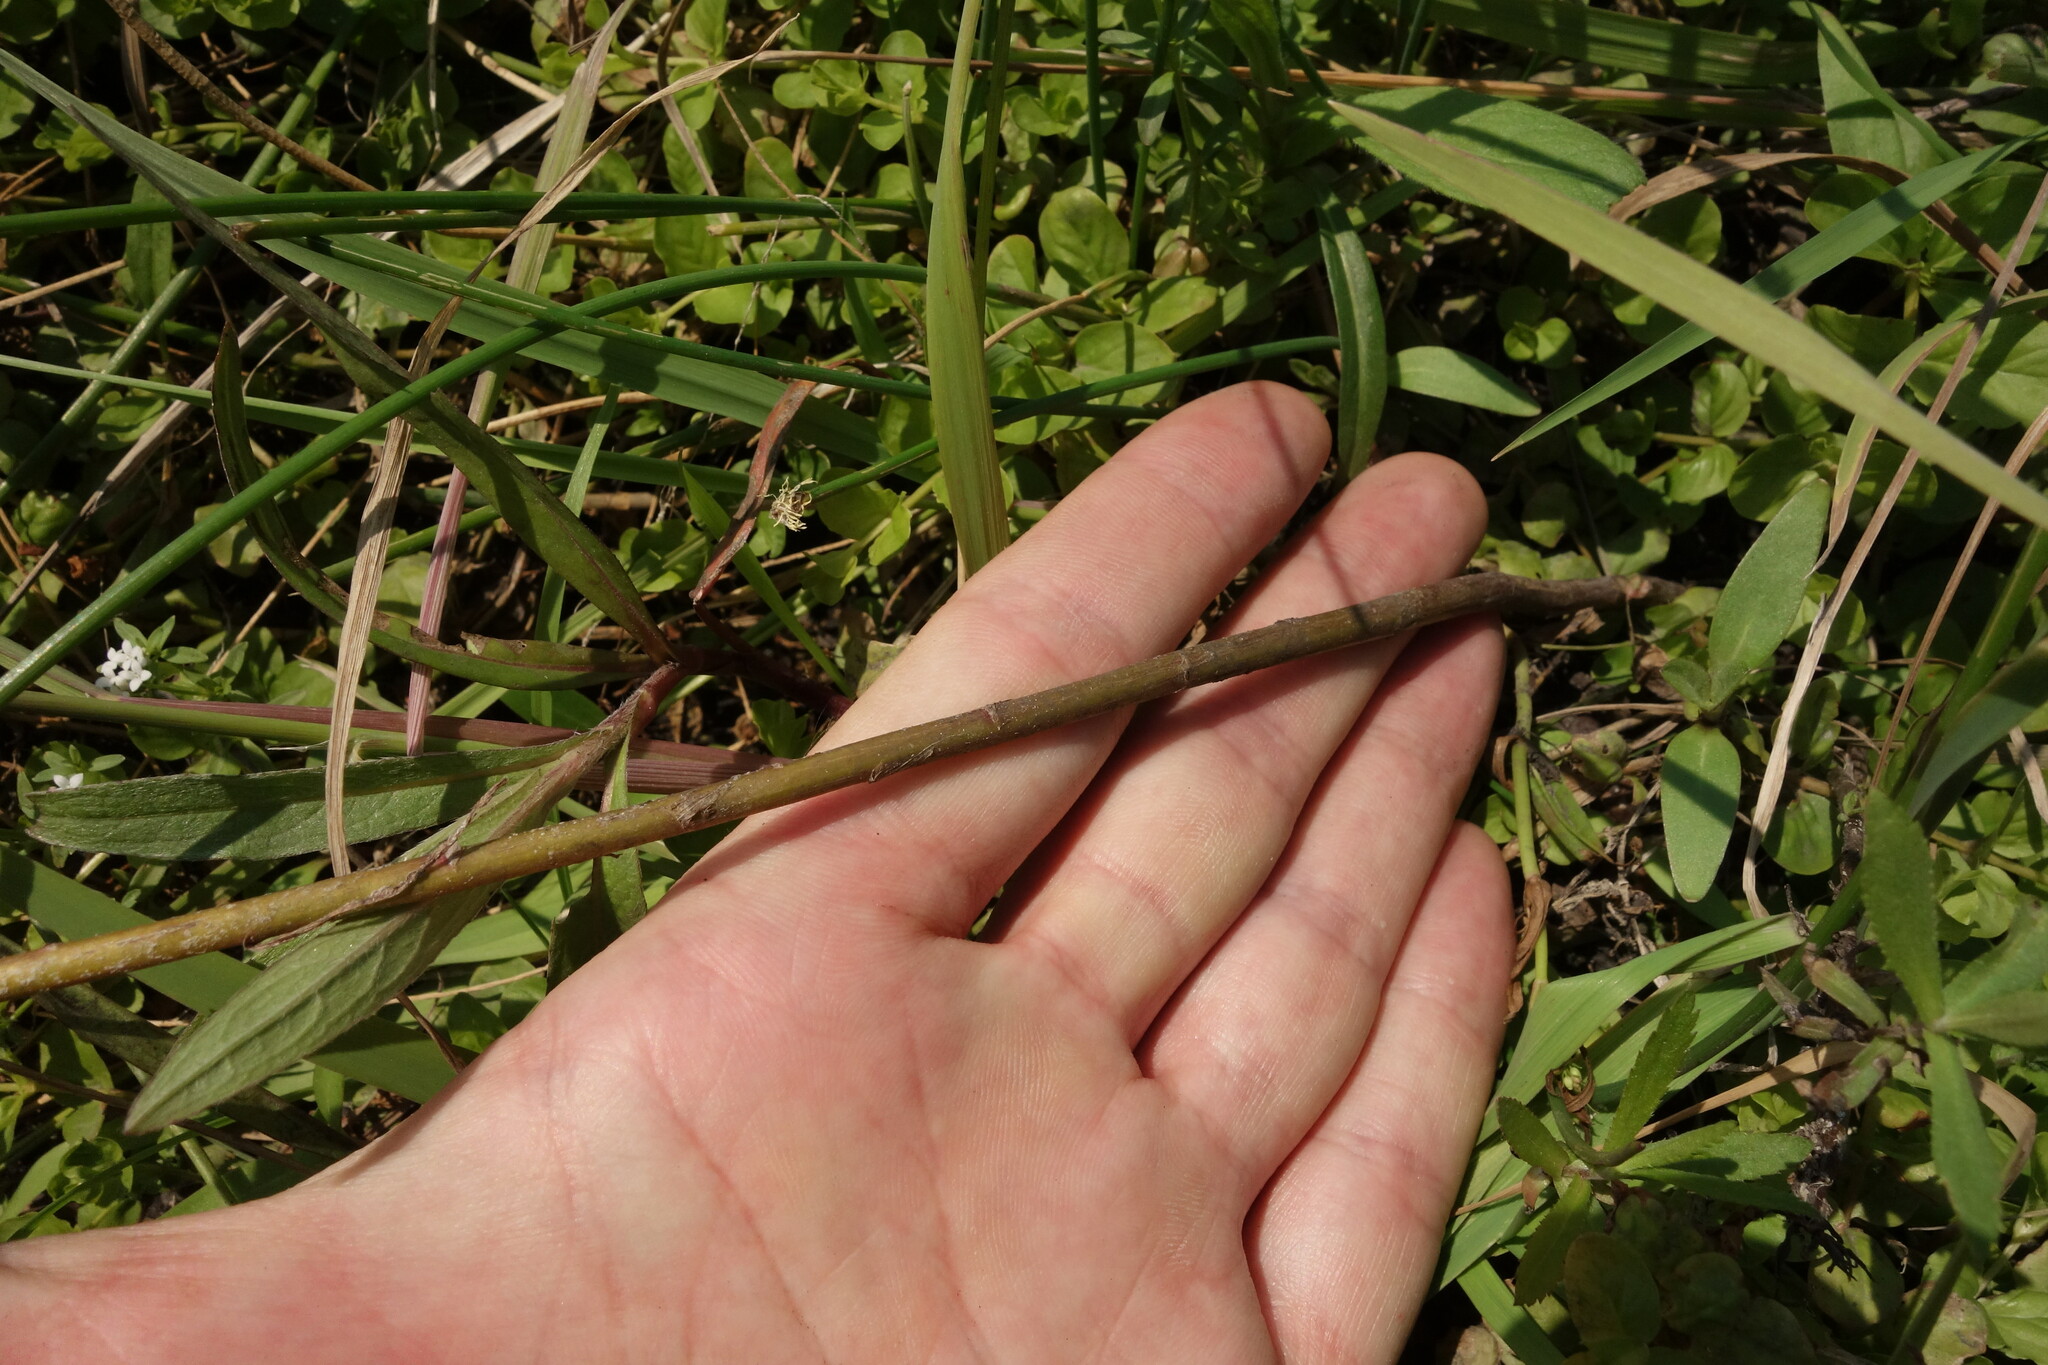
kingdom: Plantae
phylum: Tracheophyta
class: Magnoliopsida
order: Asterales
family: Asteraceae
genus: Achillea
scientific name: Achillea salicifolia
